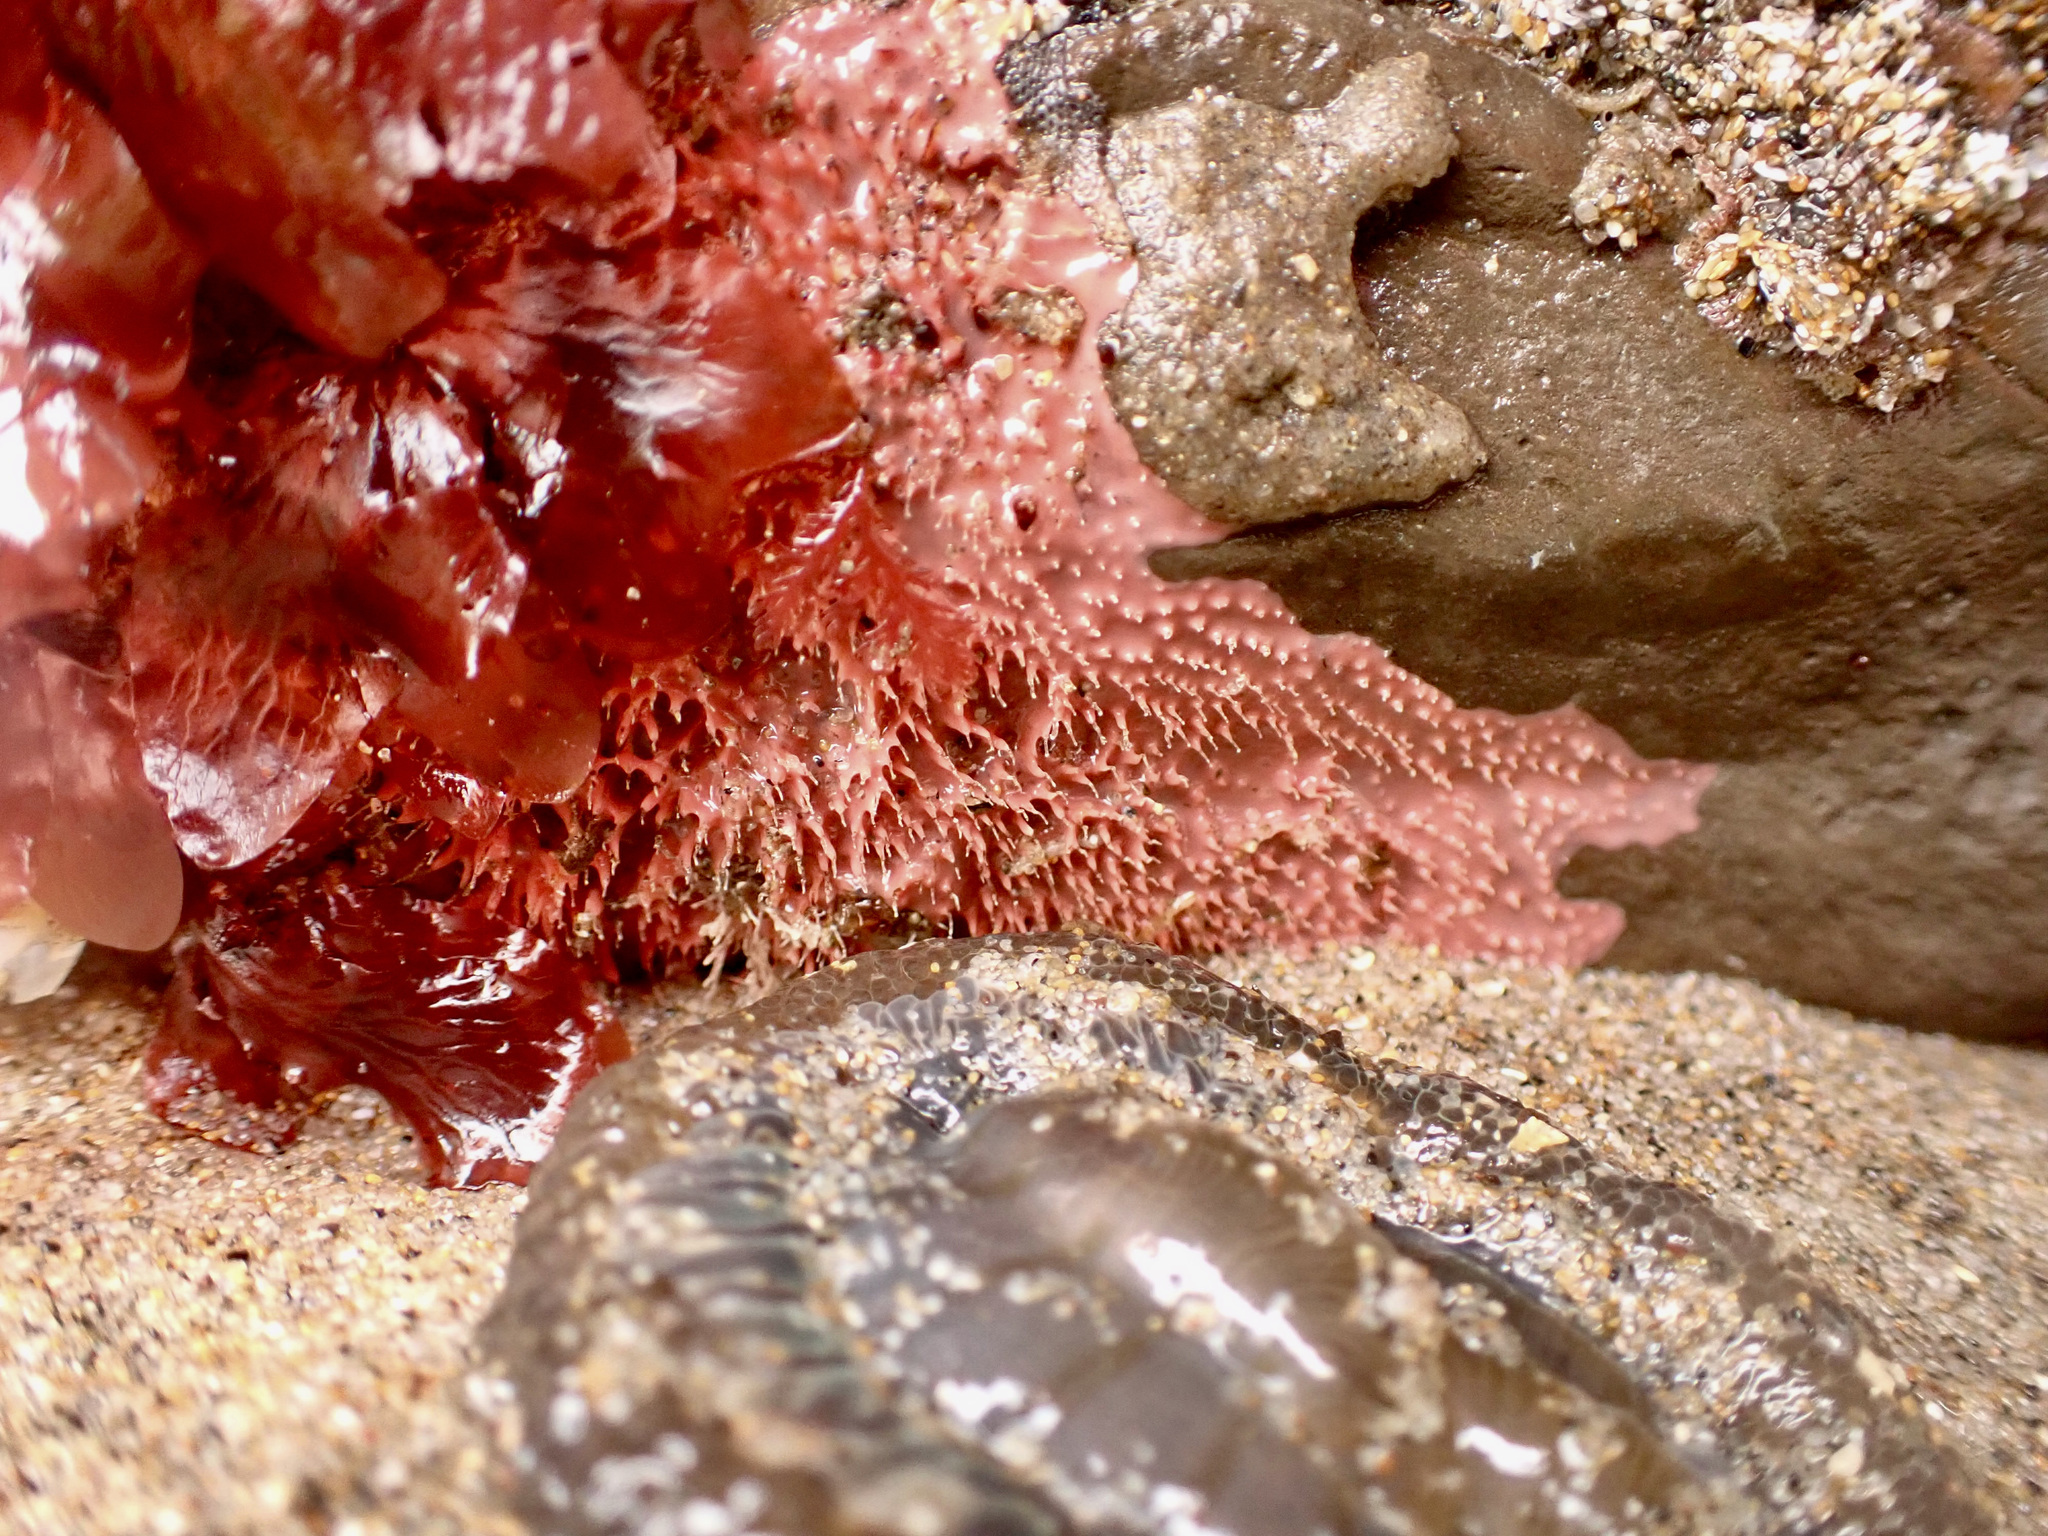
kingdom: Animalia
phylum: Porifera
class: Demospongiae
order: Dendroceratida
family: Darwinellidae
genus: Aplysilla
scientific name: Aplysilla glacialis
